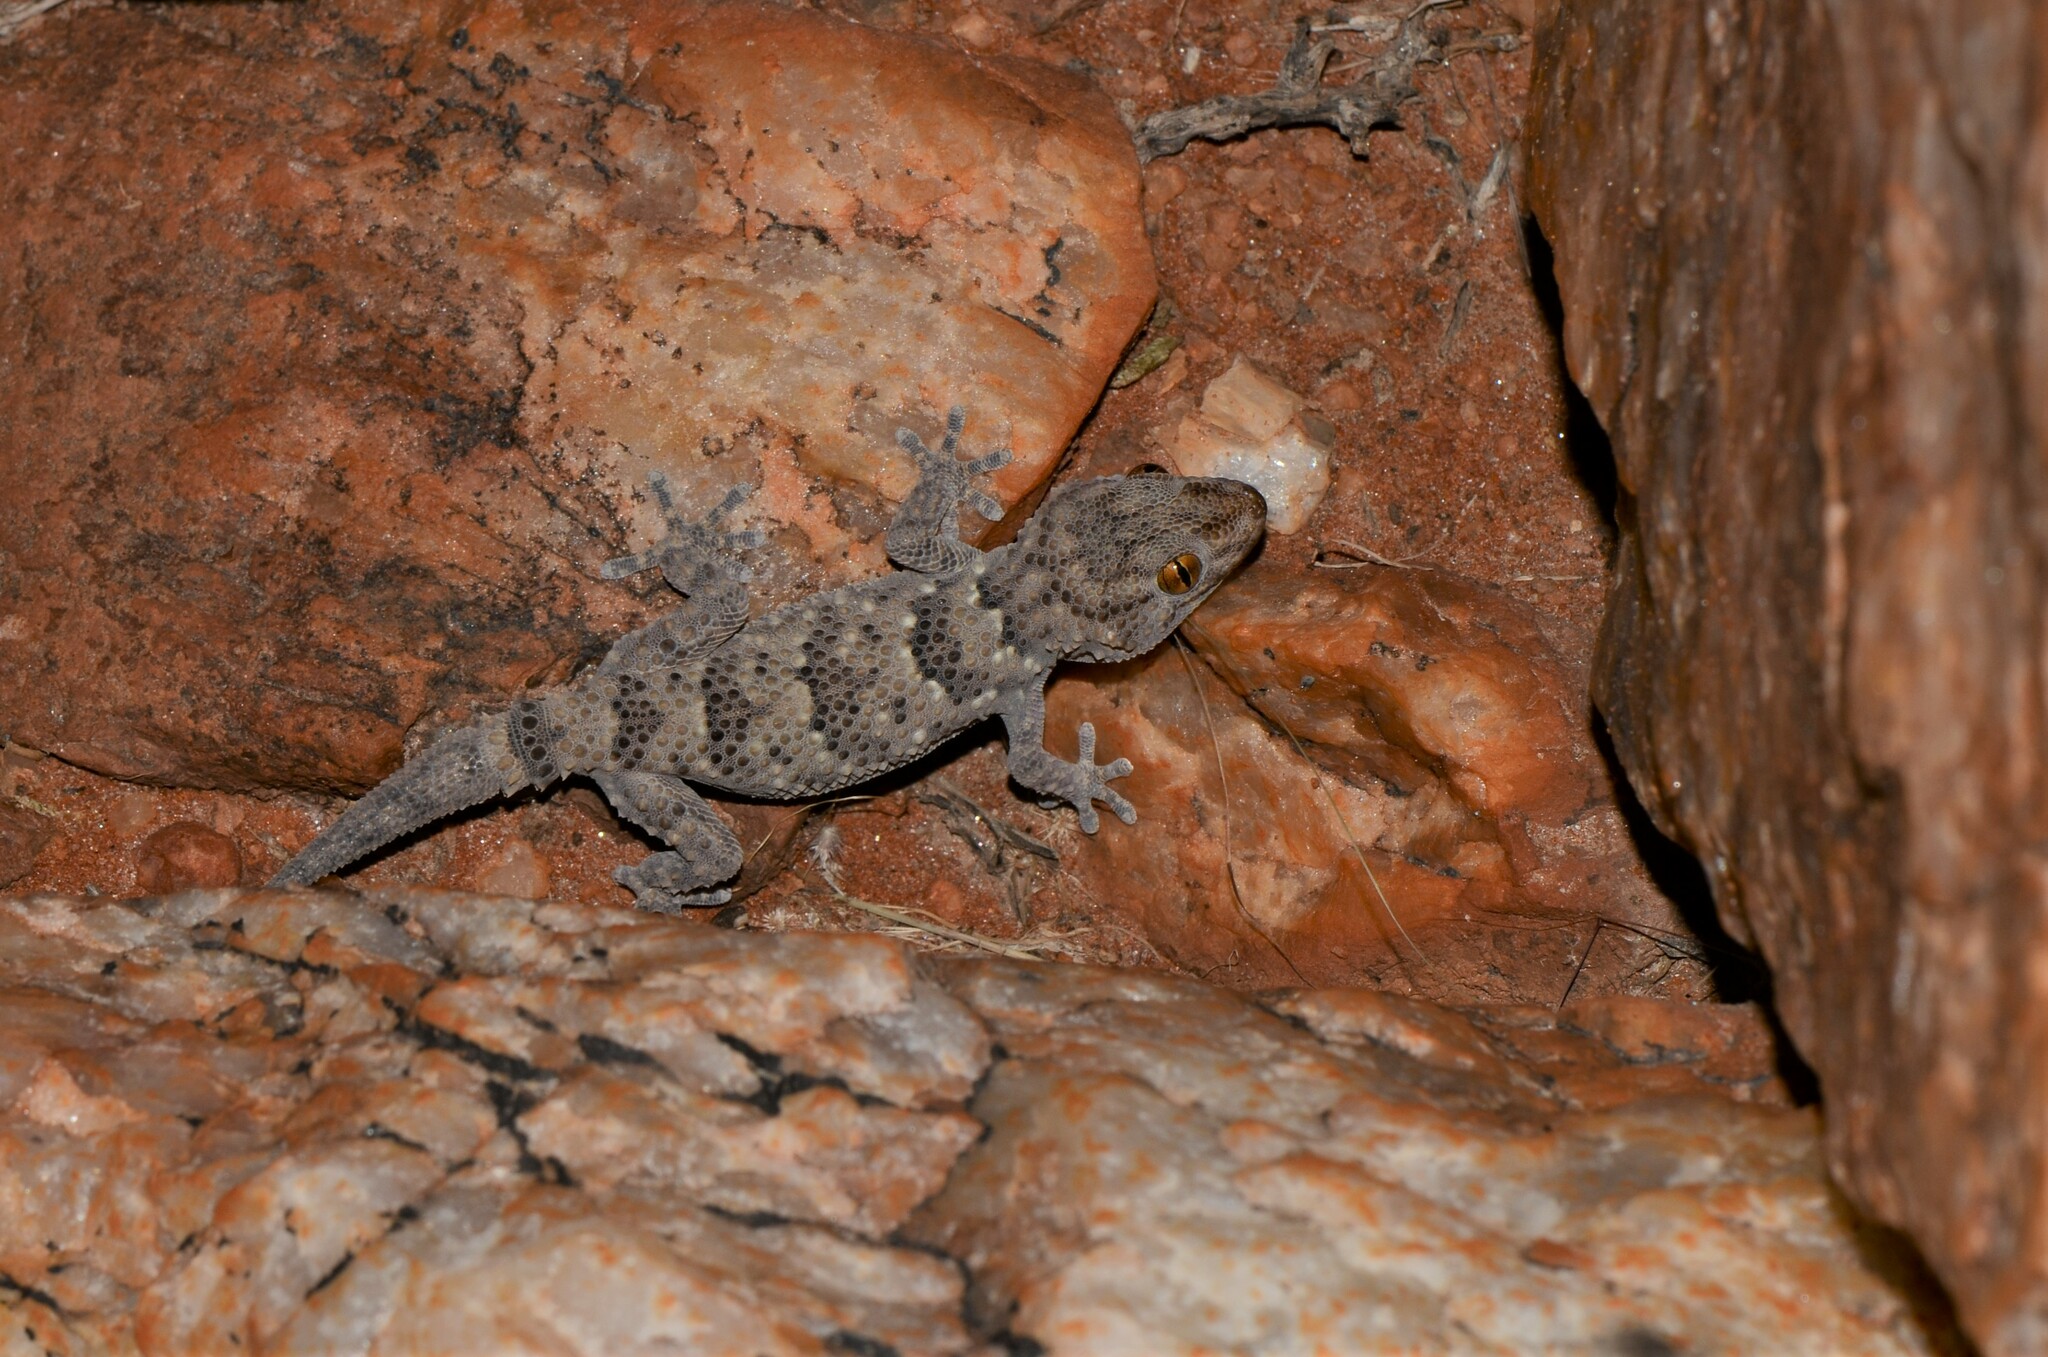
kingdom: Animalia
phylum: Chordata
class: Squamata
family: Gekkonidae
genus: Chondrodactylus
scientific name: Chondrodactylus laevigatus
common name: Fischer's thick-toed gecko
